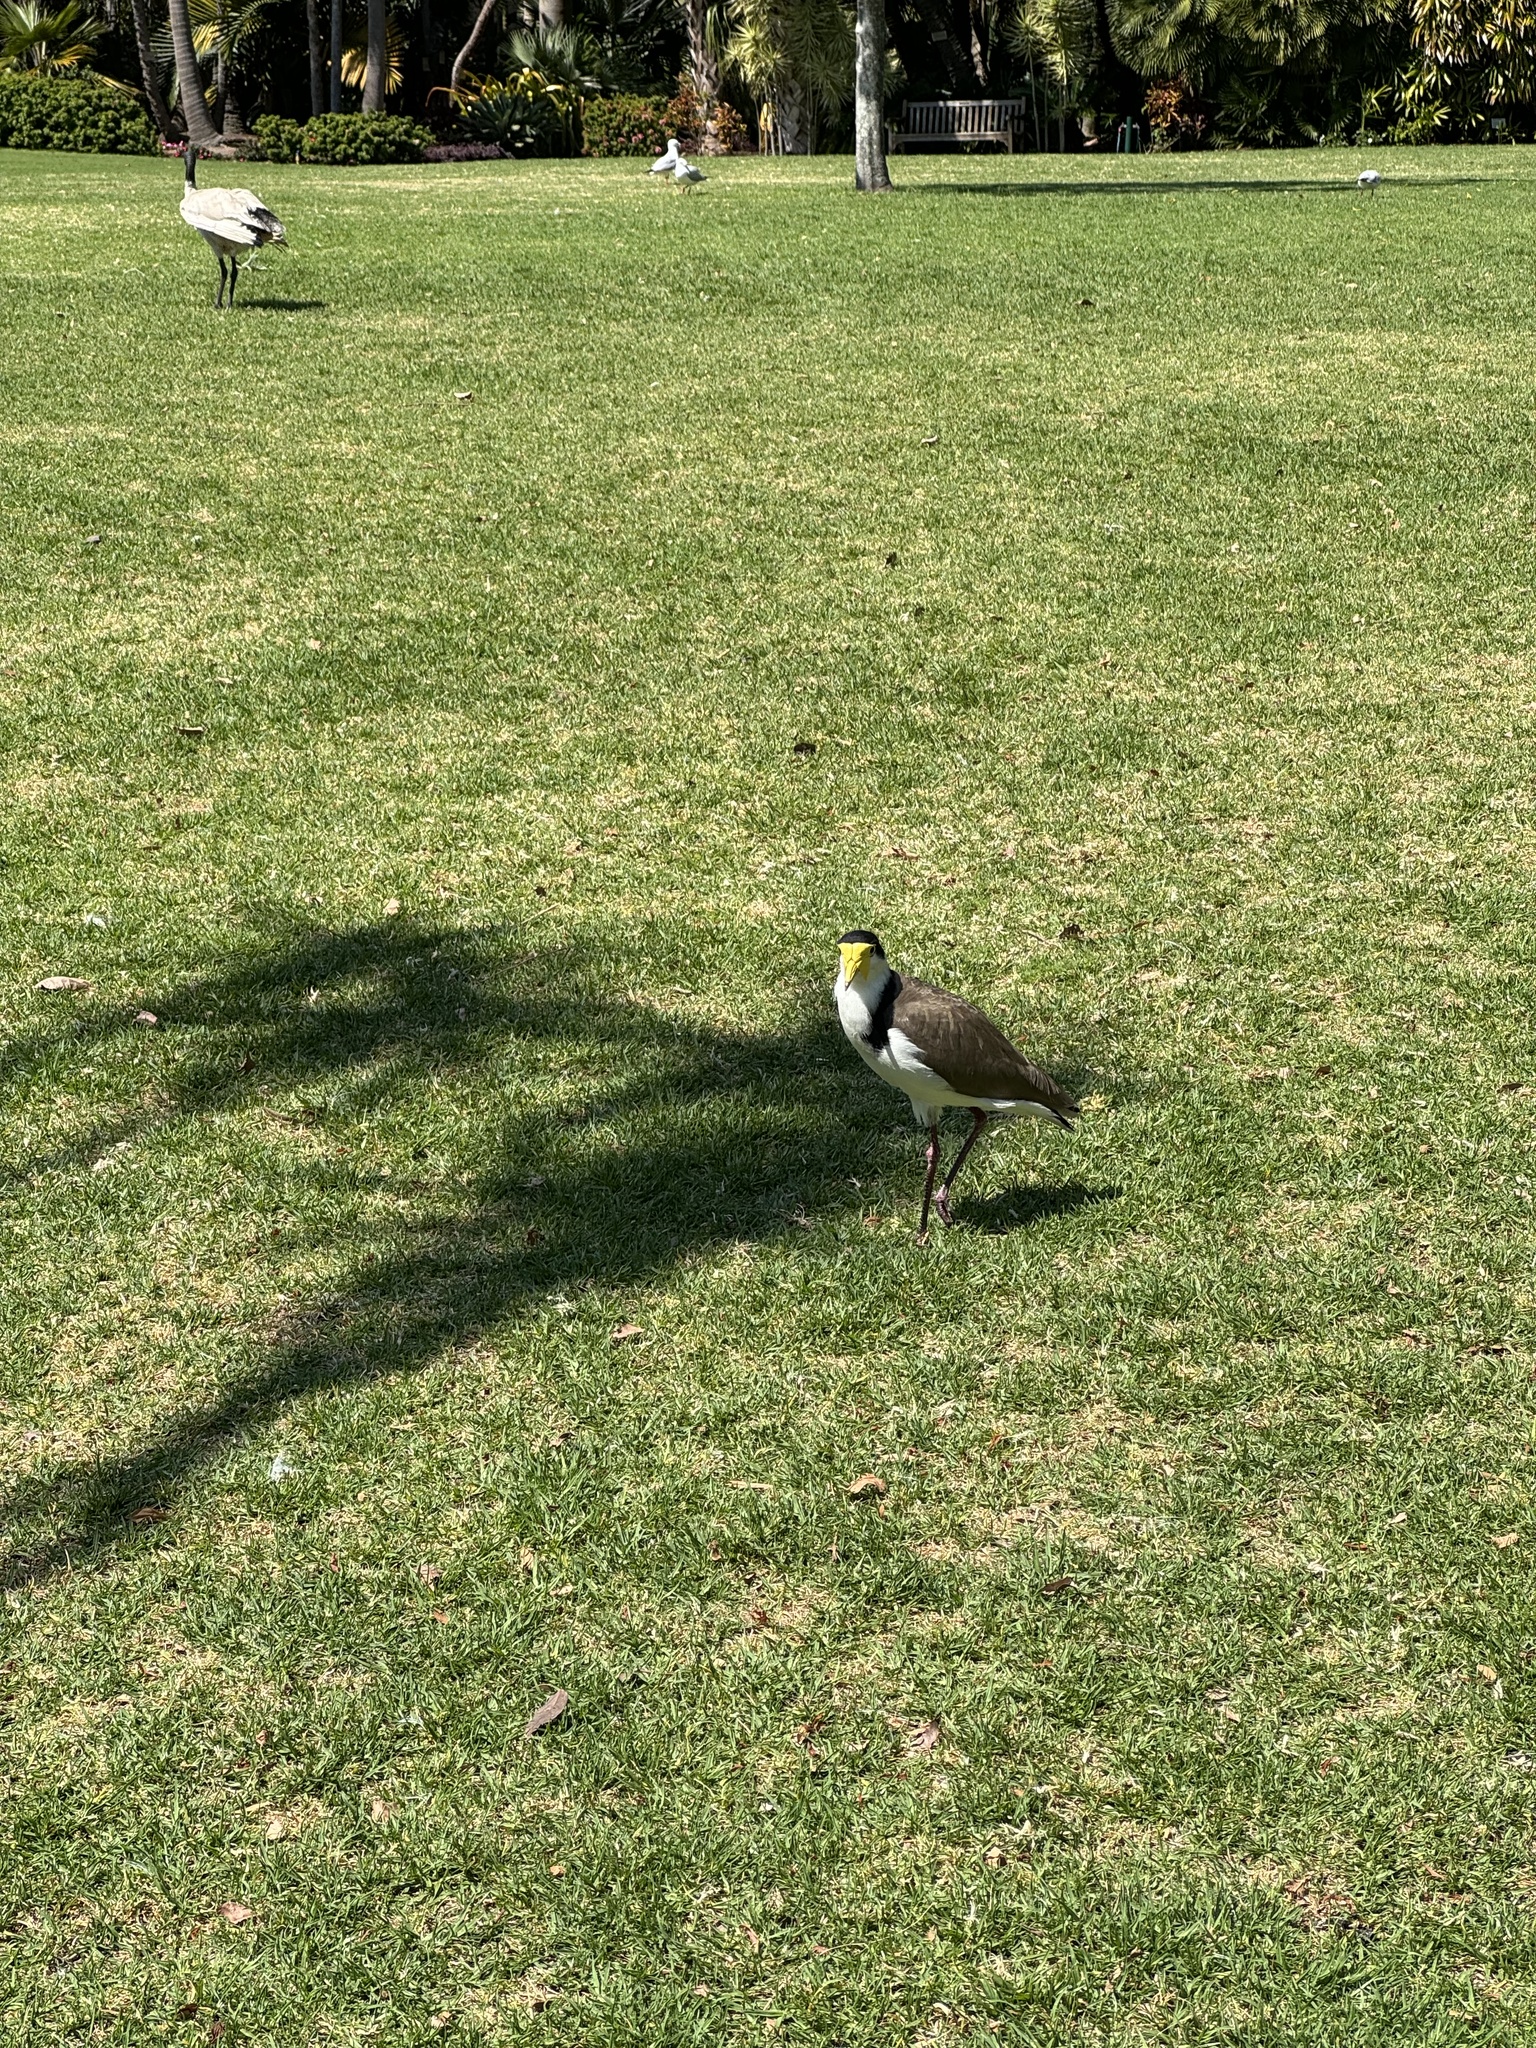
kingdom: Animalia
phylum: Chordata
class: Aves
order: Charadriiformes
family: Charadriidae
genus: Vanellus
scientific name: Vanellus miles
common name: Masked lapwing
